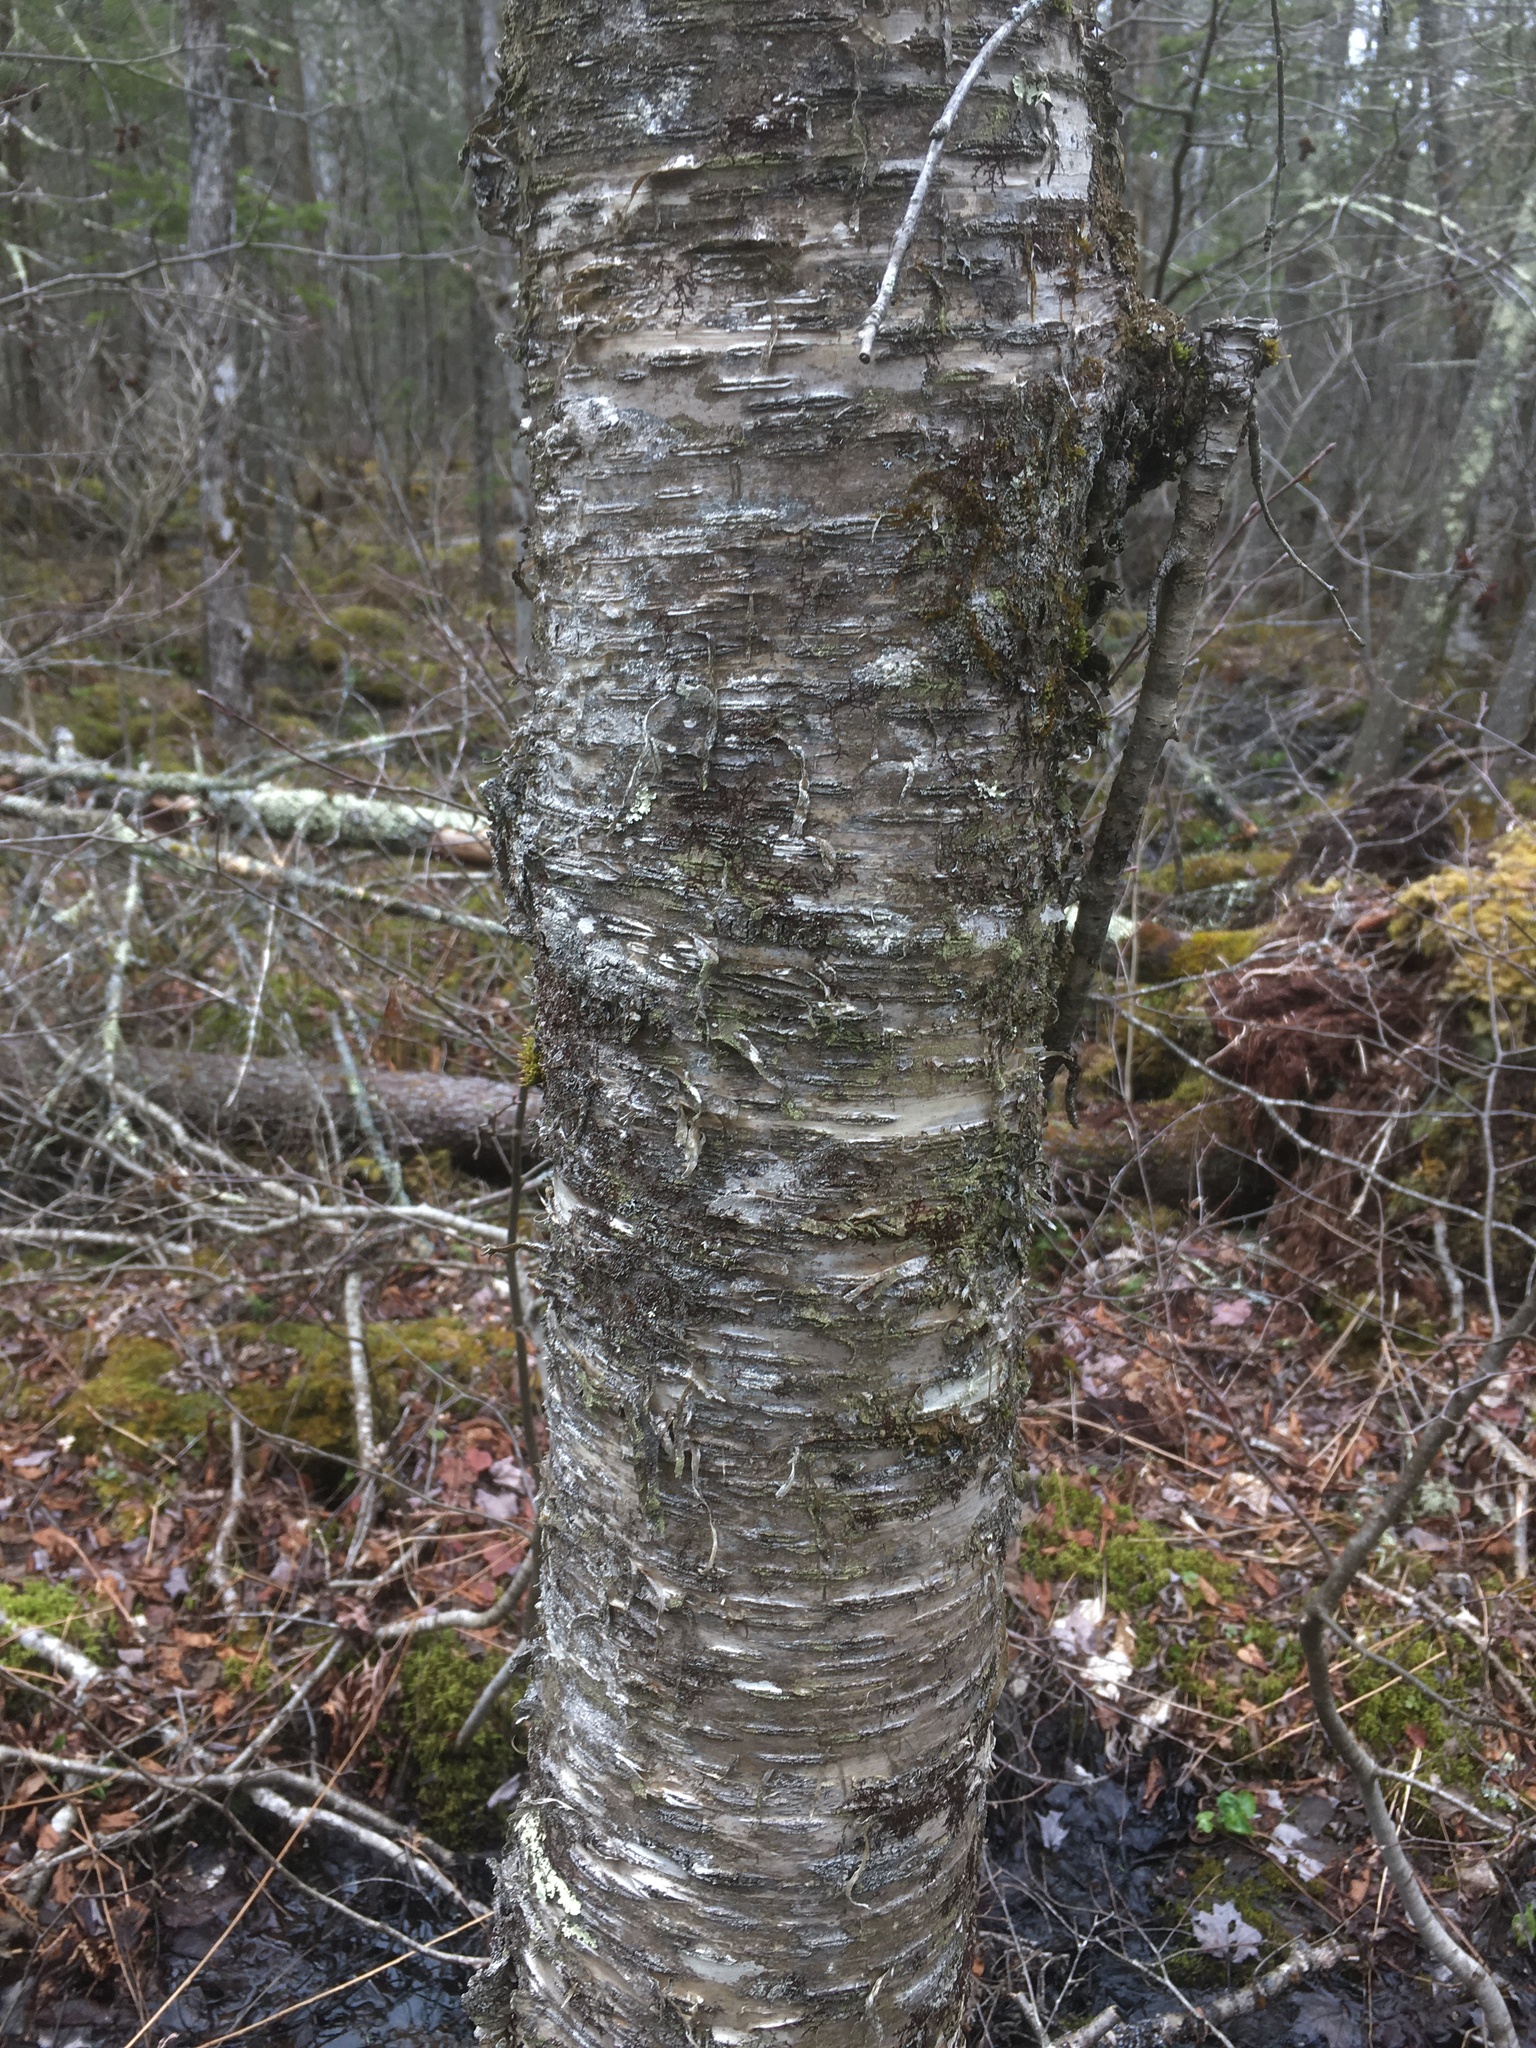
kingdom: Plantae
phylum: Tracheophyta
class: Magnoliopsida
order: Fagales
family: Betulaceae
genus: Betula
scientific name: Betula alleghaniensis
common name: Yellow birch
